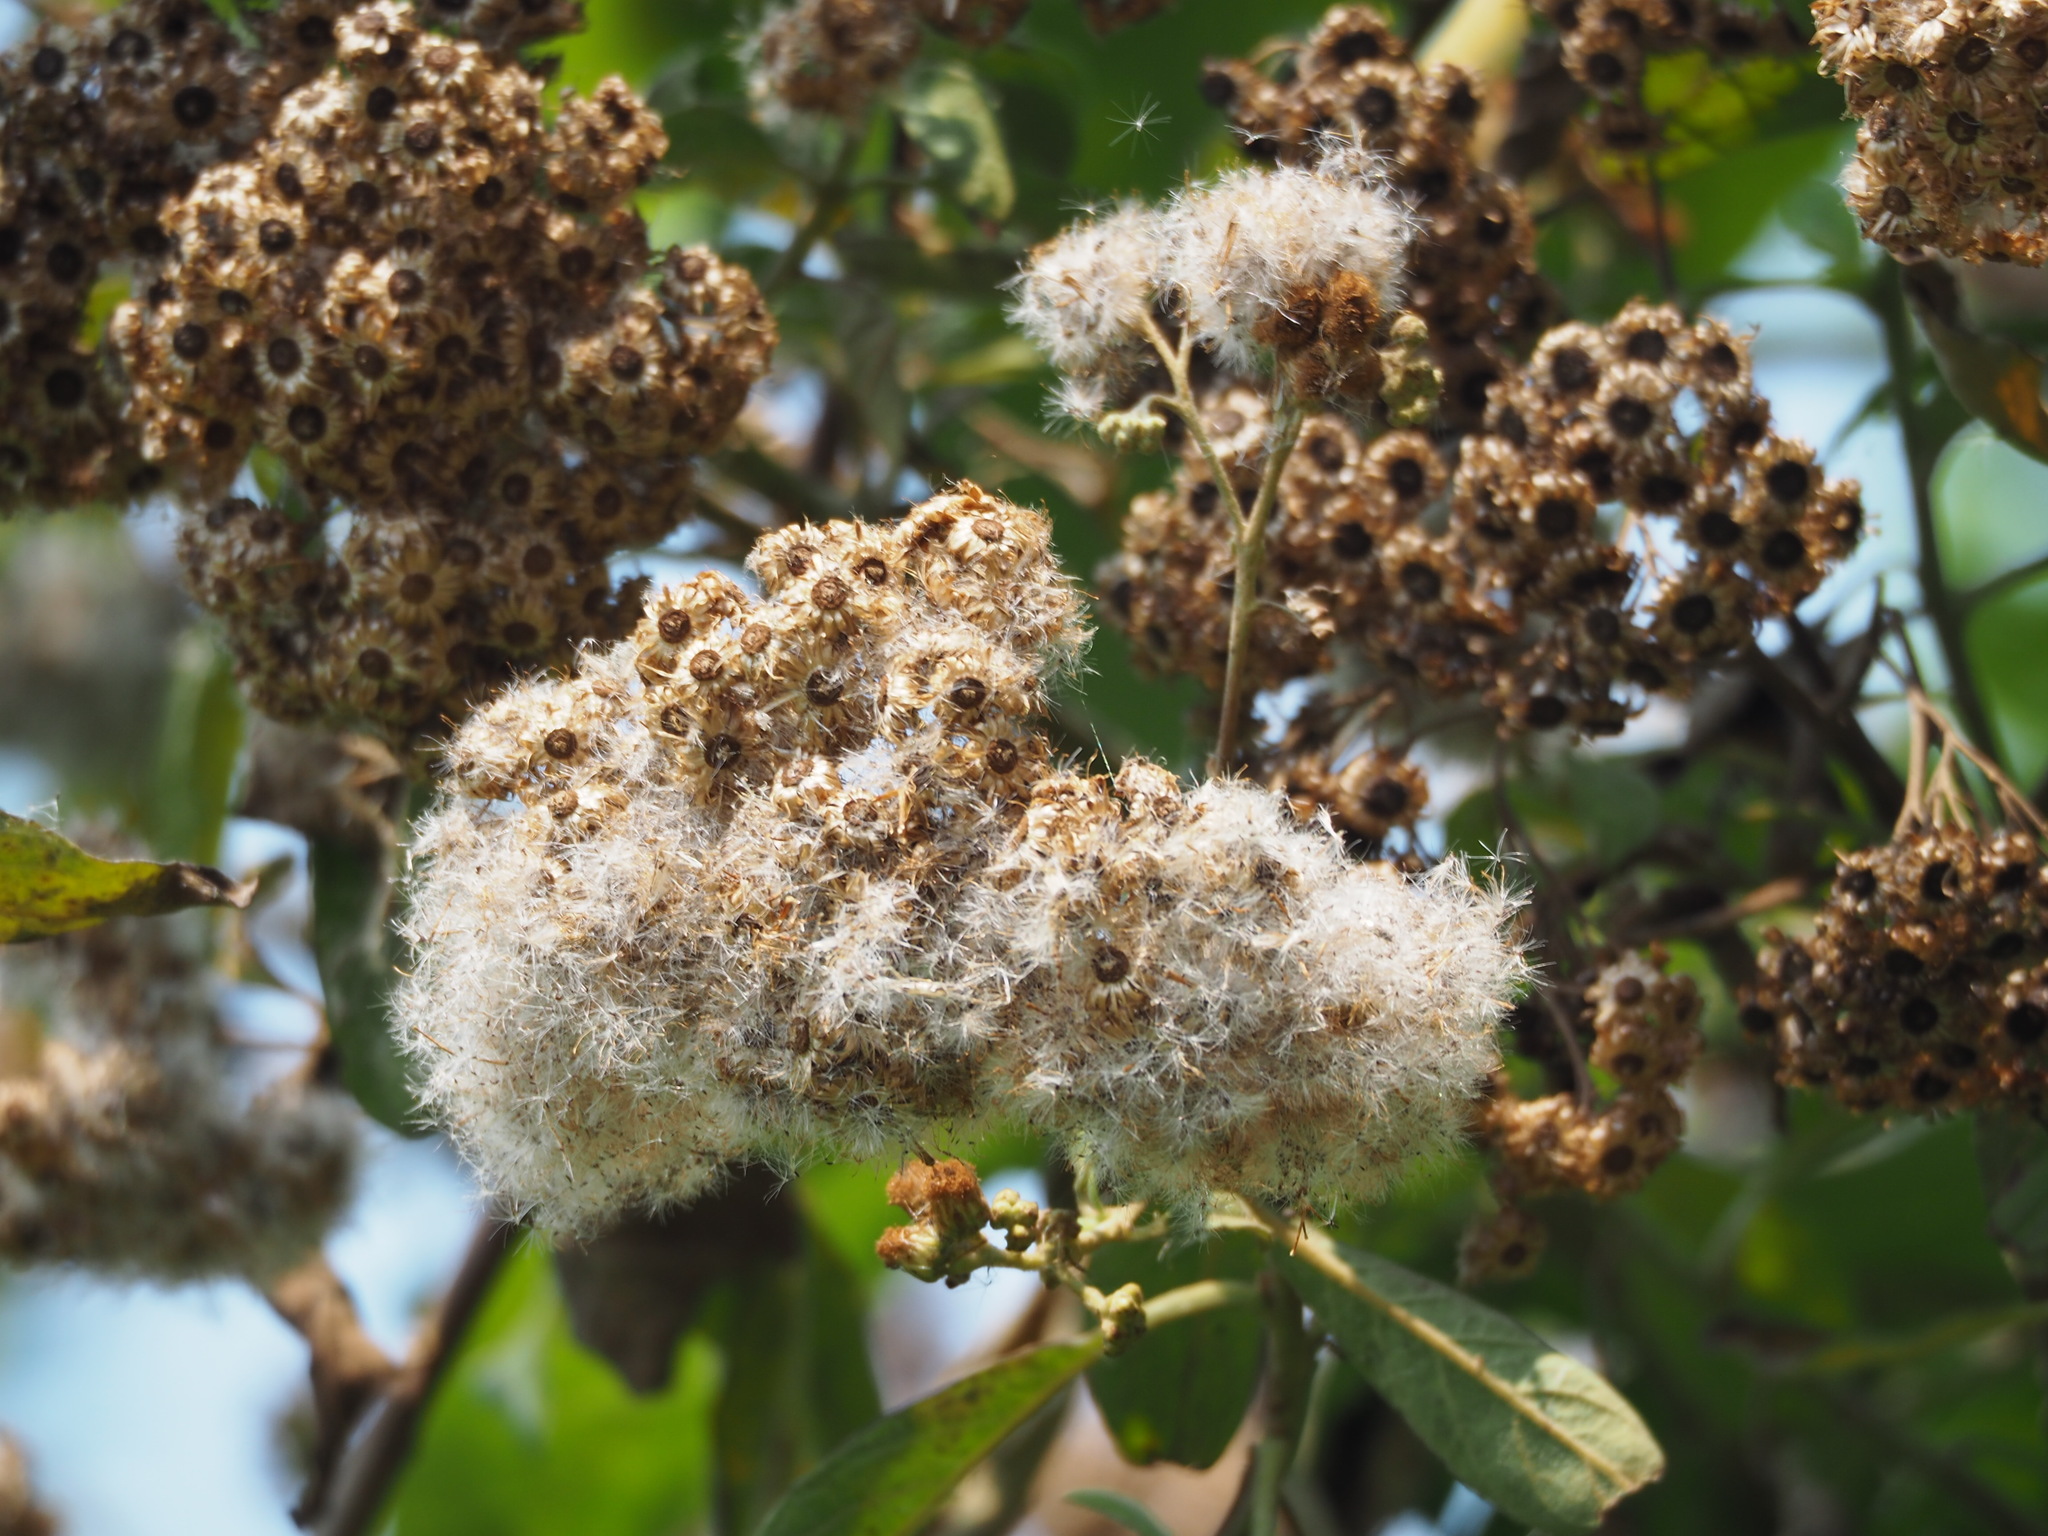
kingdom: Plantae
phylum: Tracheophyta
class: Magnoliopsida
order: Asterales
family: Asteraceae
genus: Pluchea
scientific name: Pluchea carolinensis
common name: Marsh fleabane
